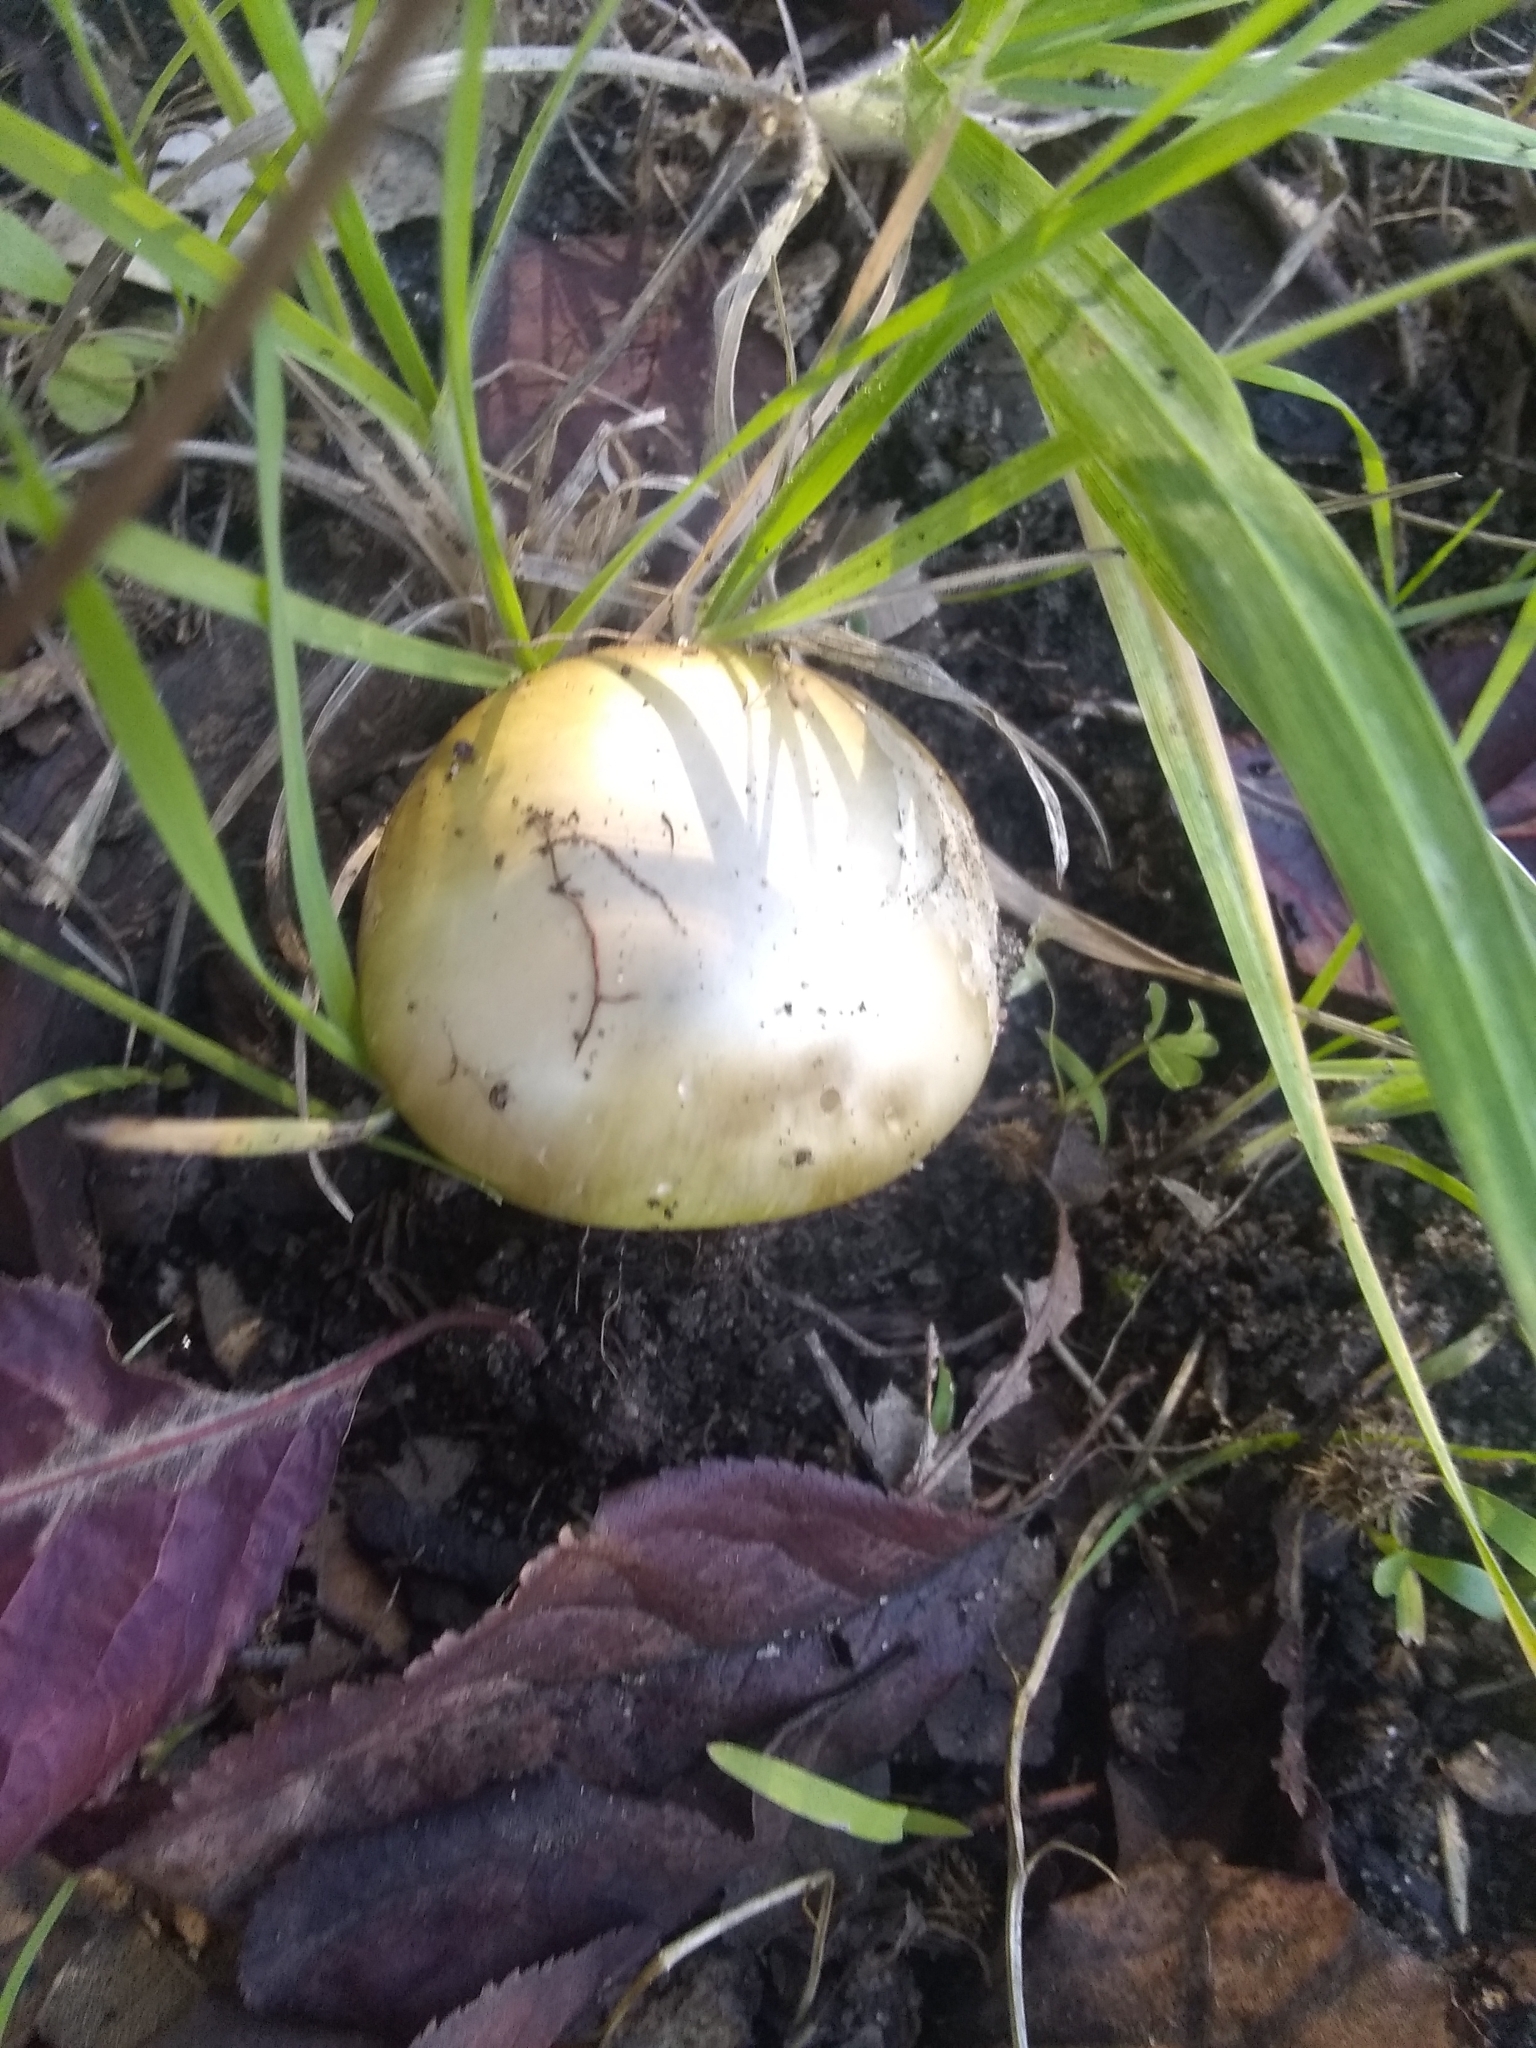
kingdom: Fungi
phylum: Basidiomycota
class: Agaricomycetes
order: Agaricales
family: Amanitaceae
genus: Amanita
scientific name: Amanita phalloides
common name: Death cap
